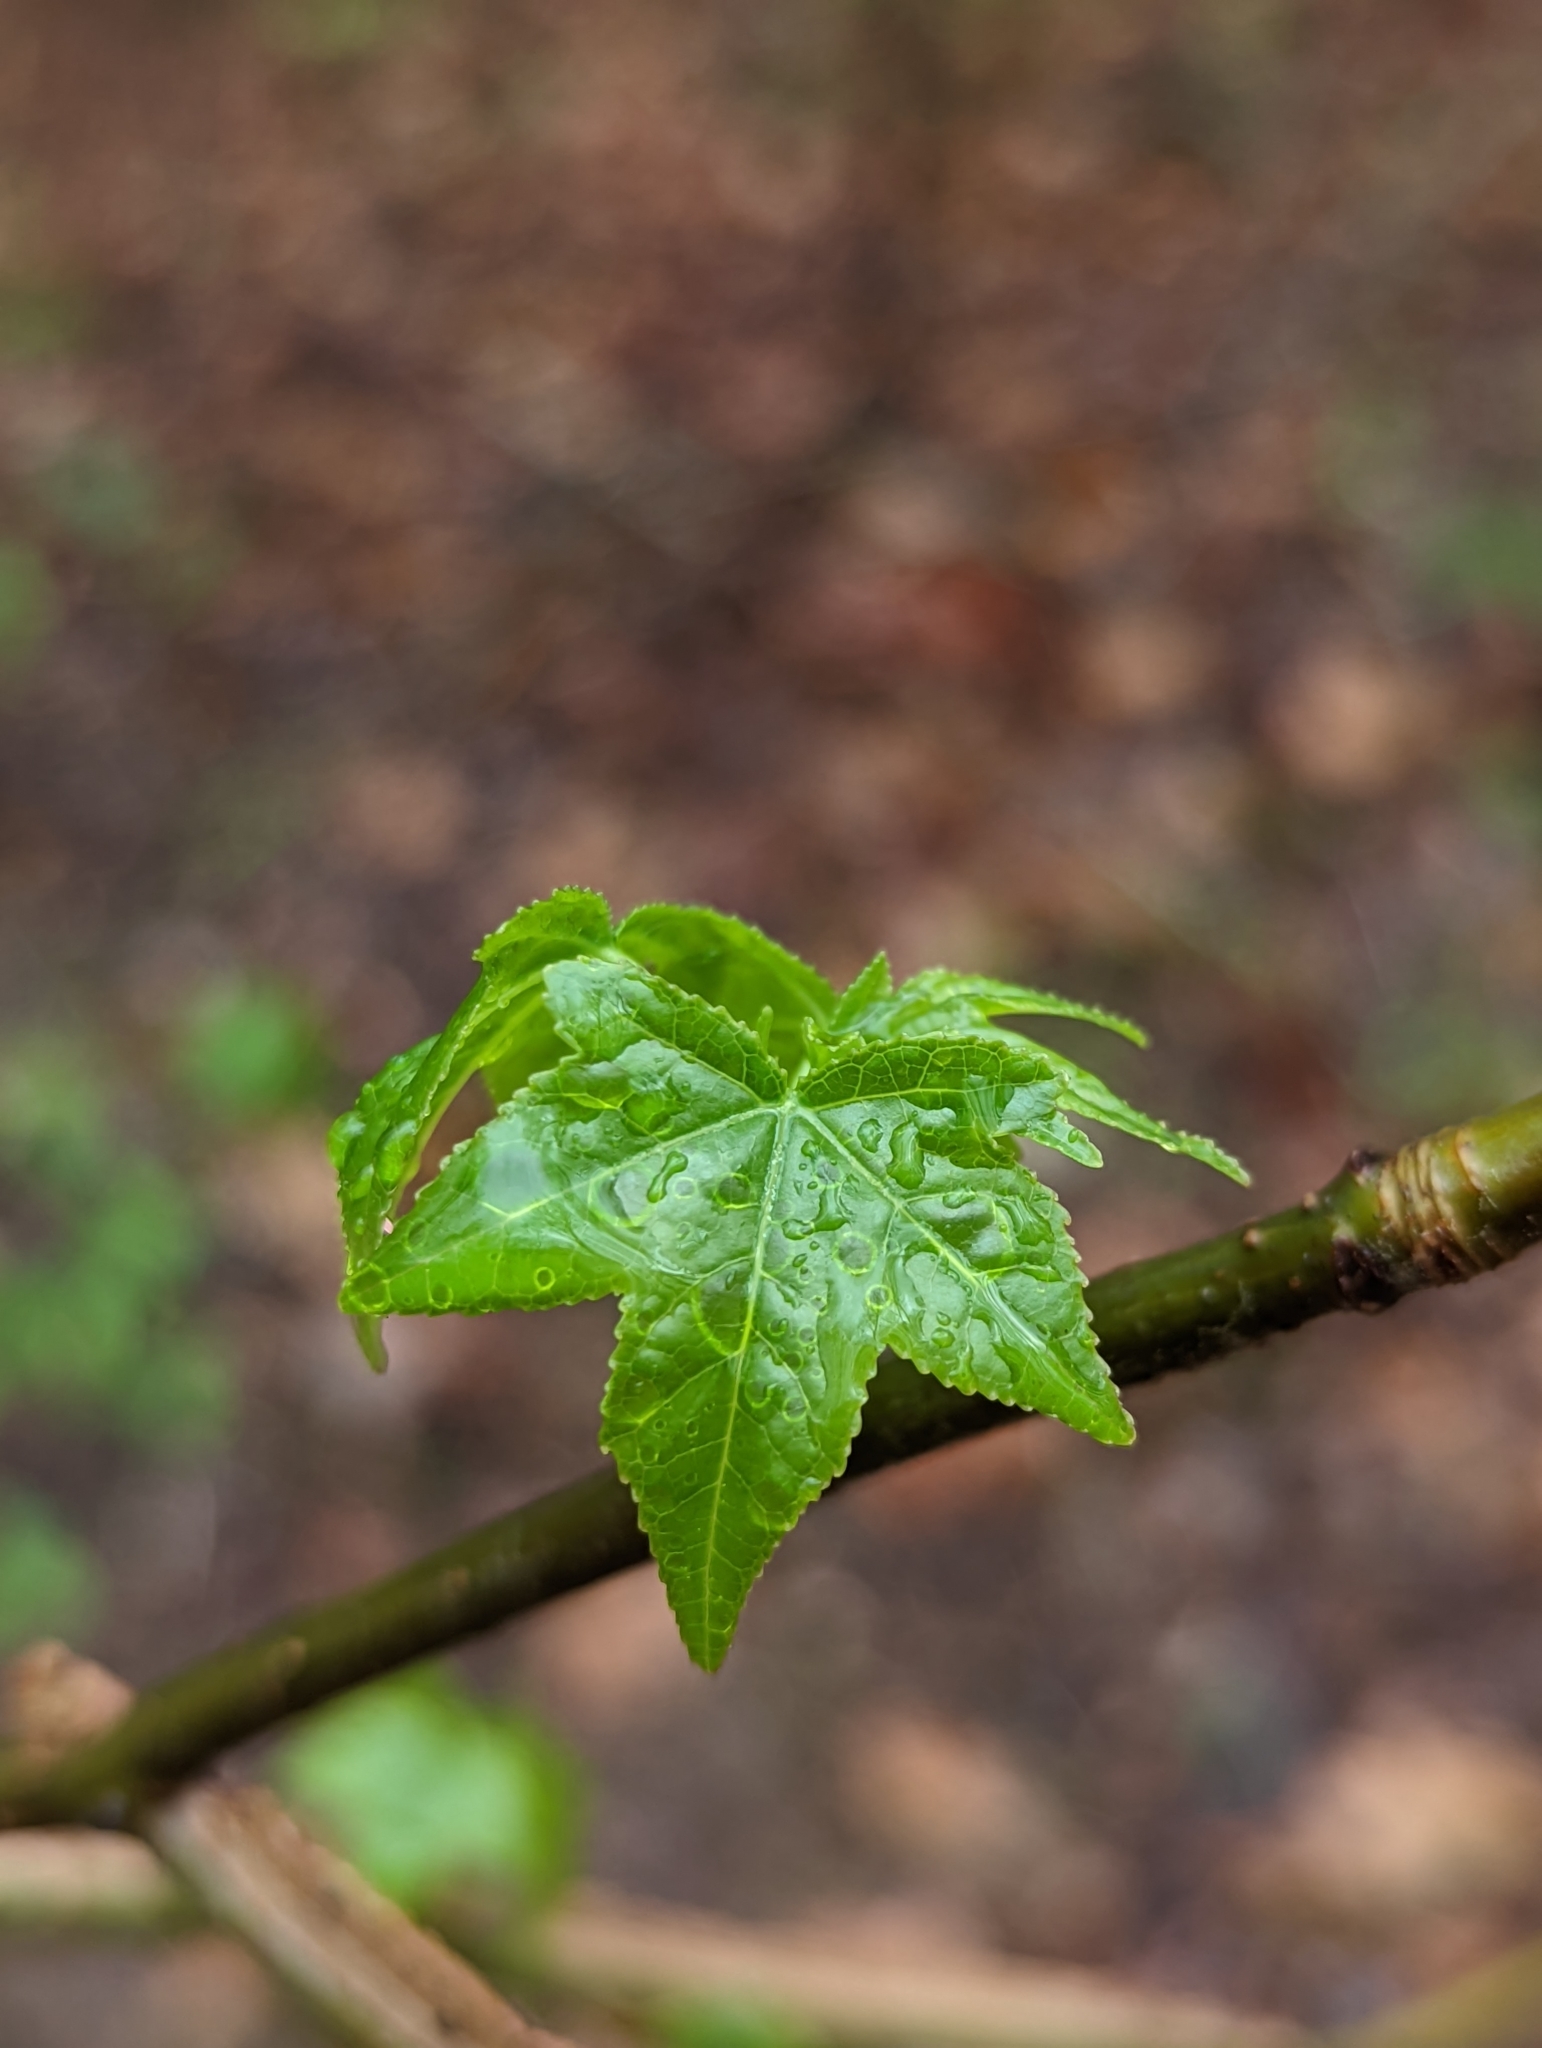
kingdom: Plantae
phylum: Tracheophyta
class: Magnoliopsida
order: Saxifragales
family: Altingiaceae
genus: Liquidambar
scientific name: Liquidambar styraciflua
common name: Sweet gum
